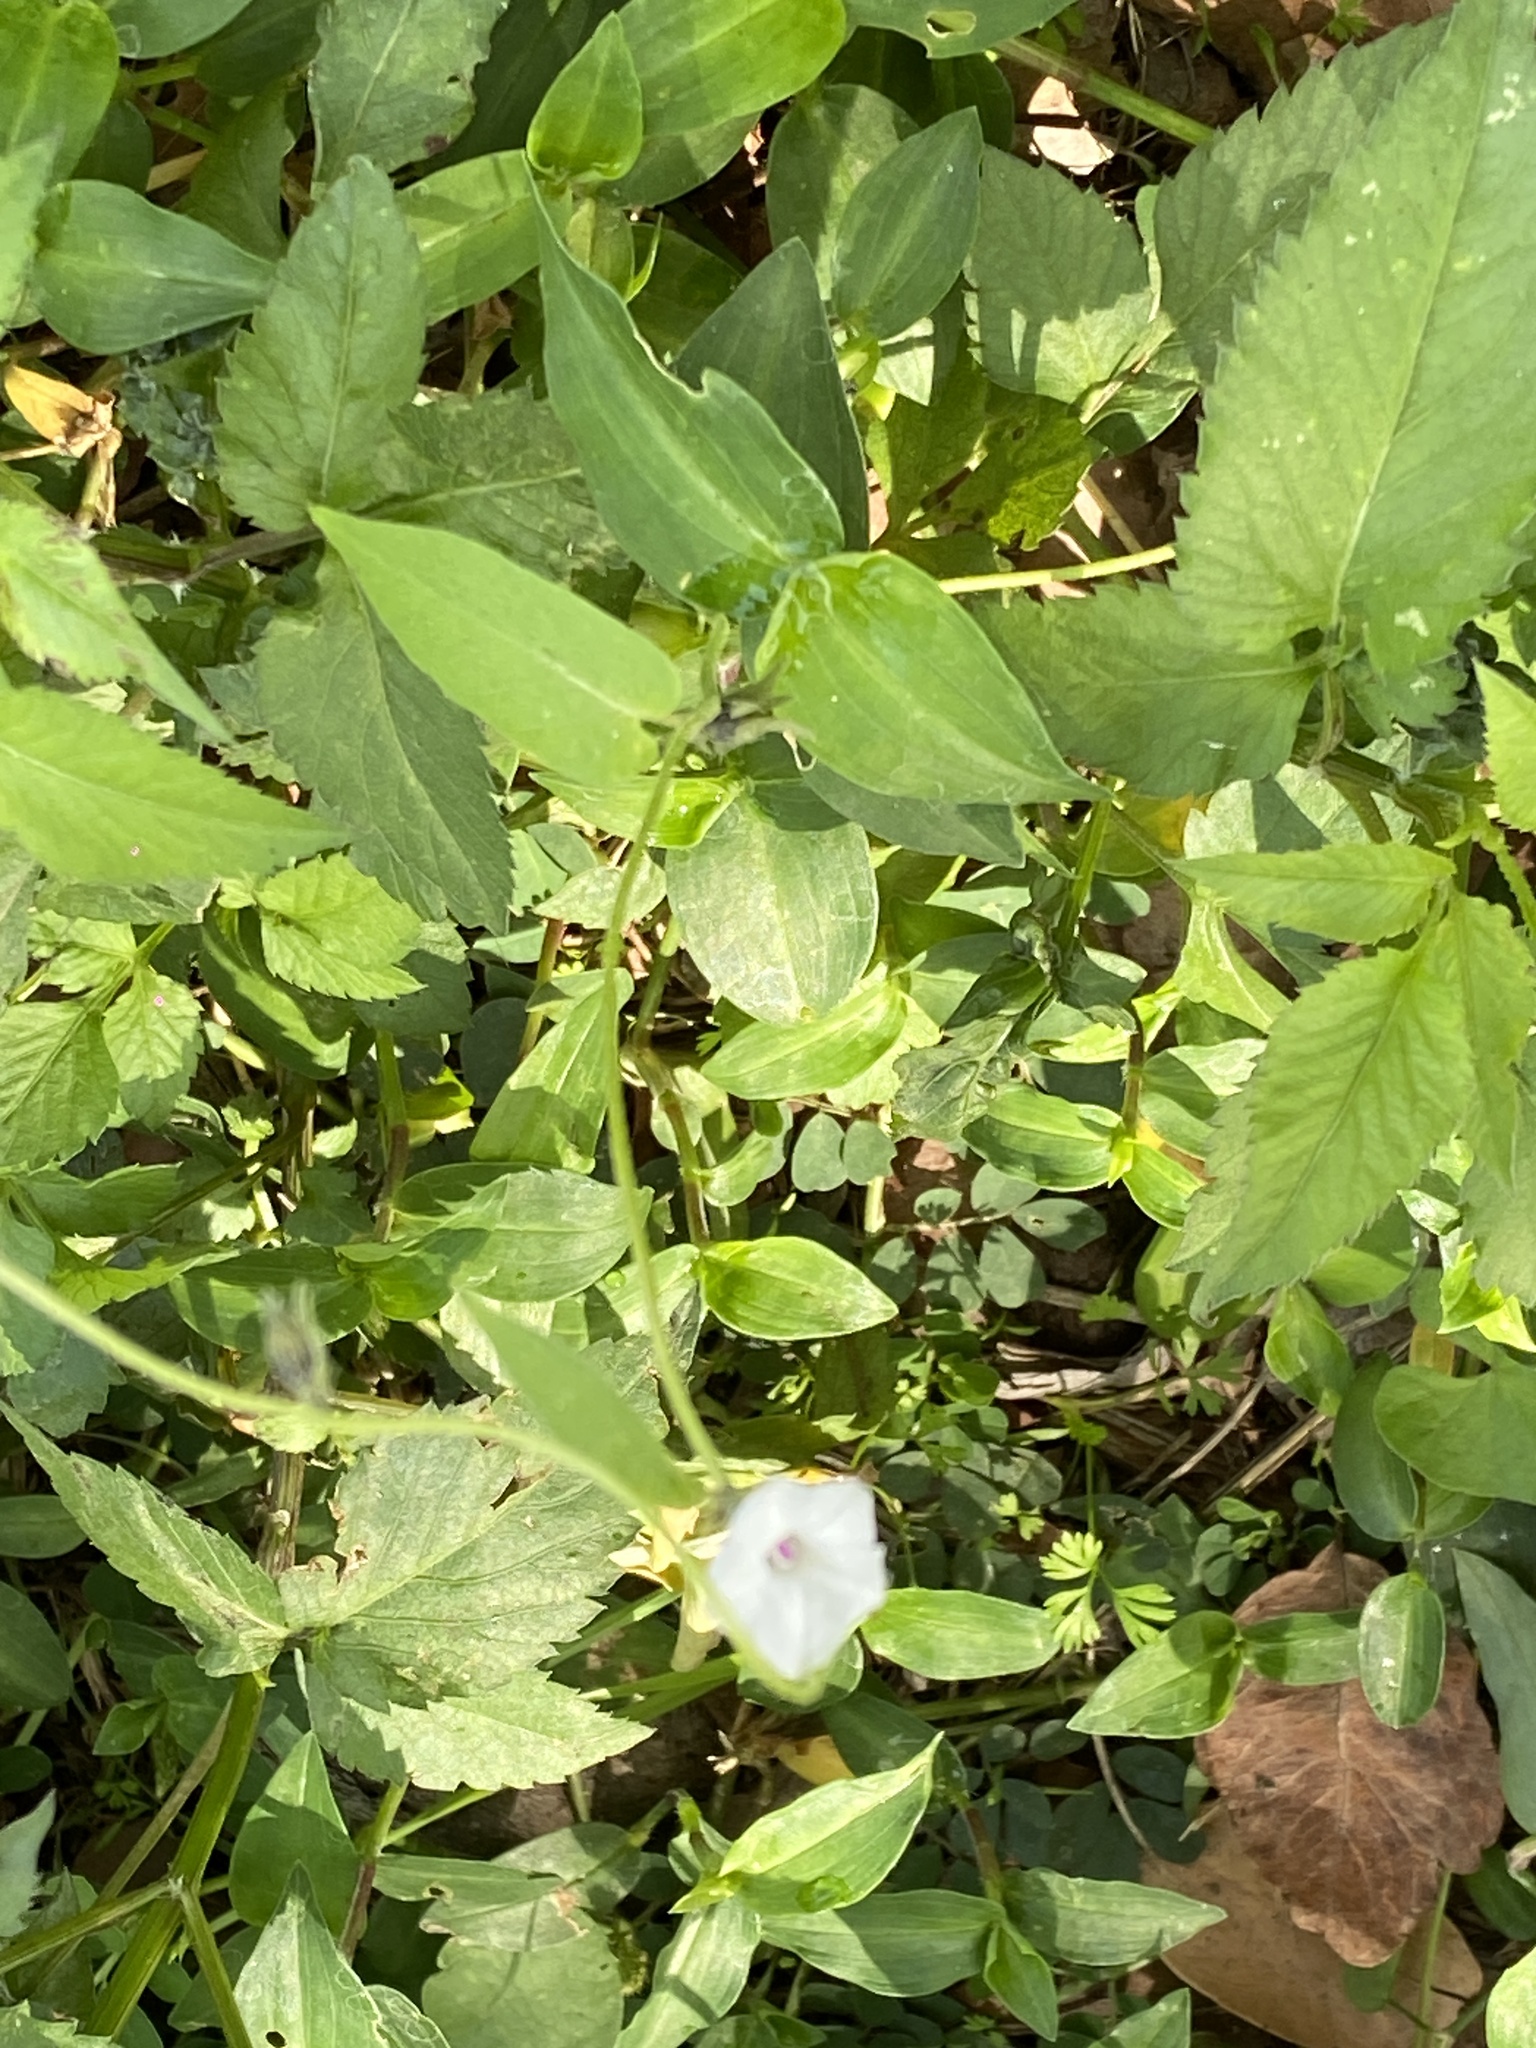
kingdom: Plantae
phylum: Tracheophyta
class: Magnoliopsida
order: Solanales
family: Convolvulaceae
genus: Ipomoea
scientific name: Ipomoea biflora
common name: Bellvine
